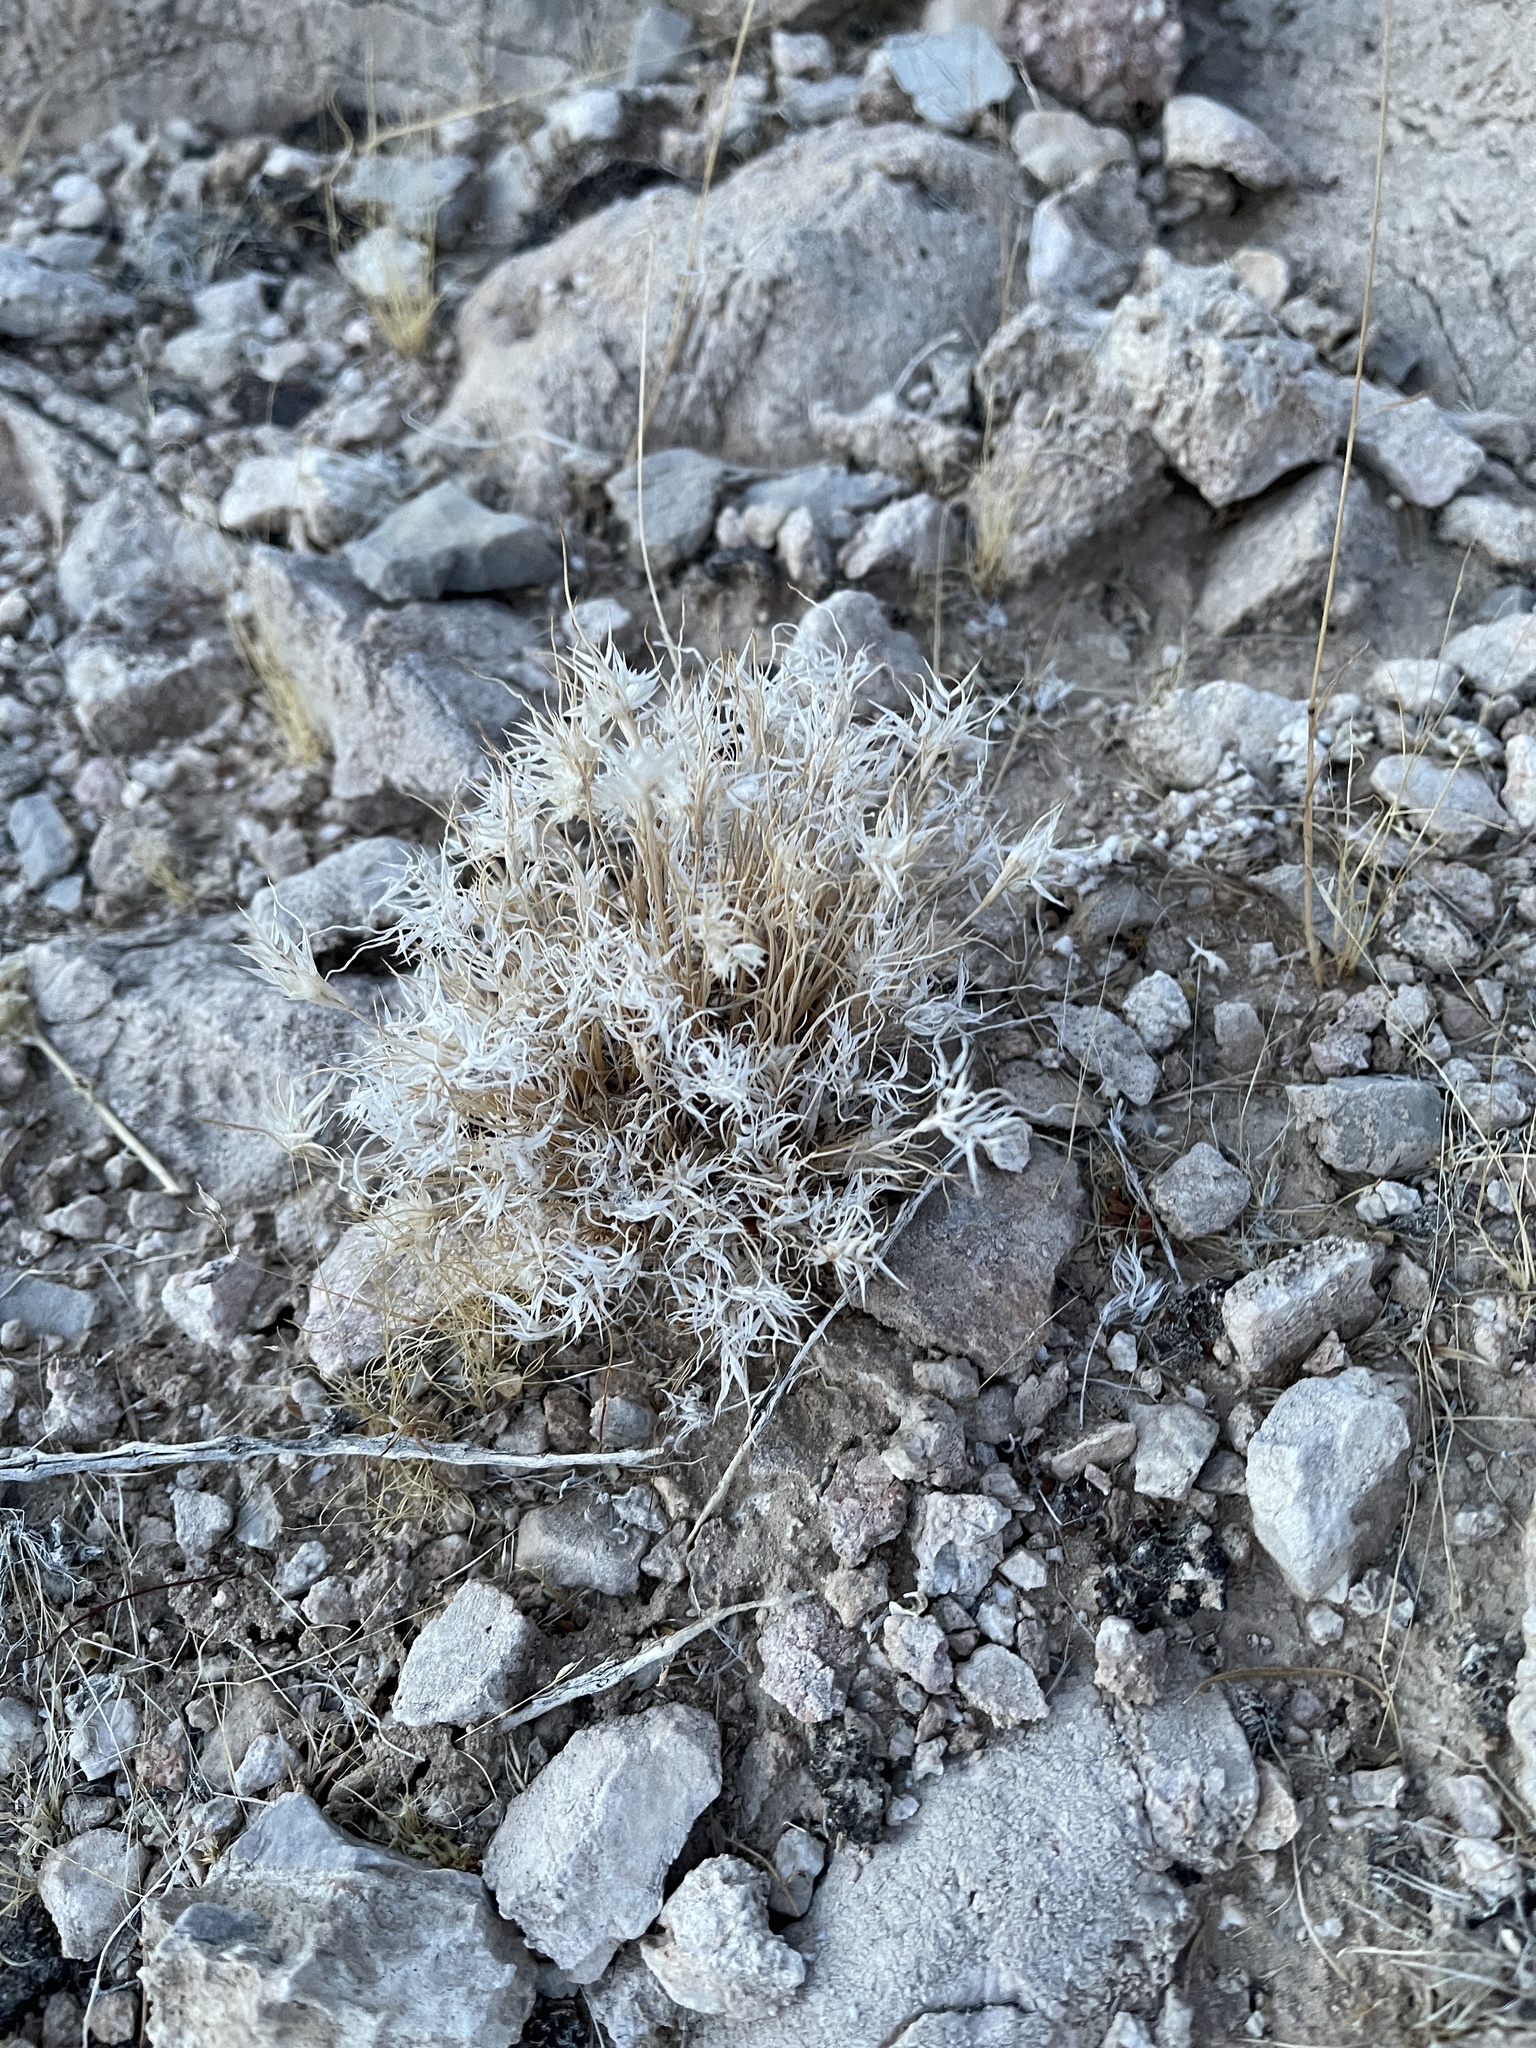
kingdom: Plantae
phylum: Tracheophyta
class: Liliopsida
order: Poales
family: Poaceae
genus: Dasyochloa
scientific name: Dasyochloa pulchella
